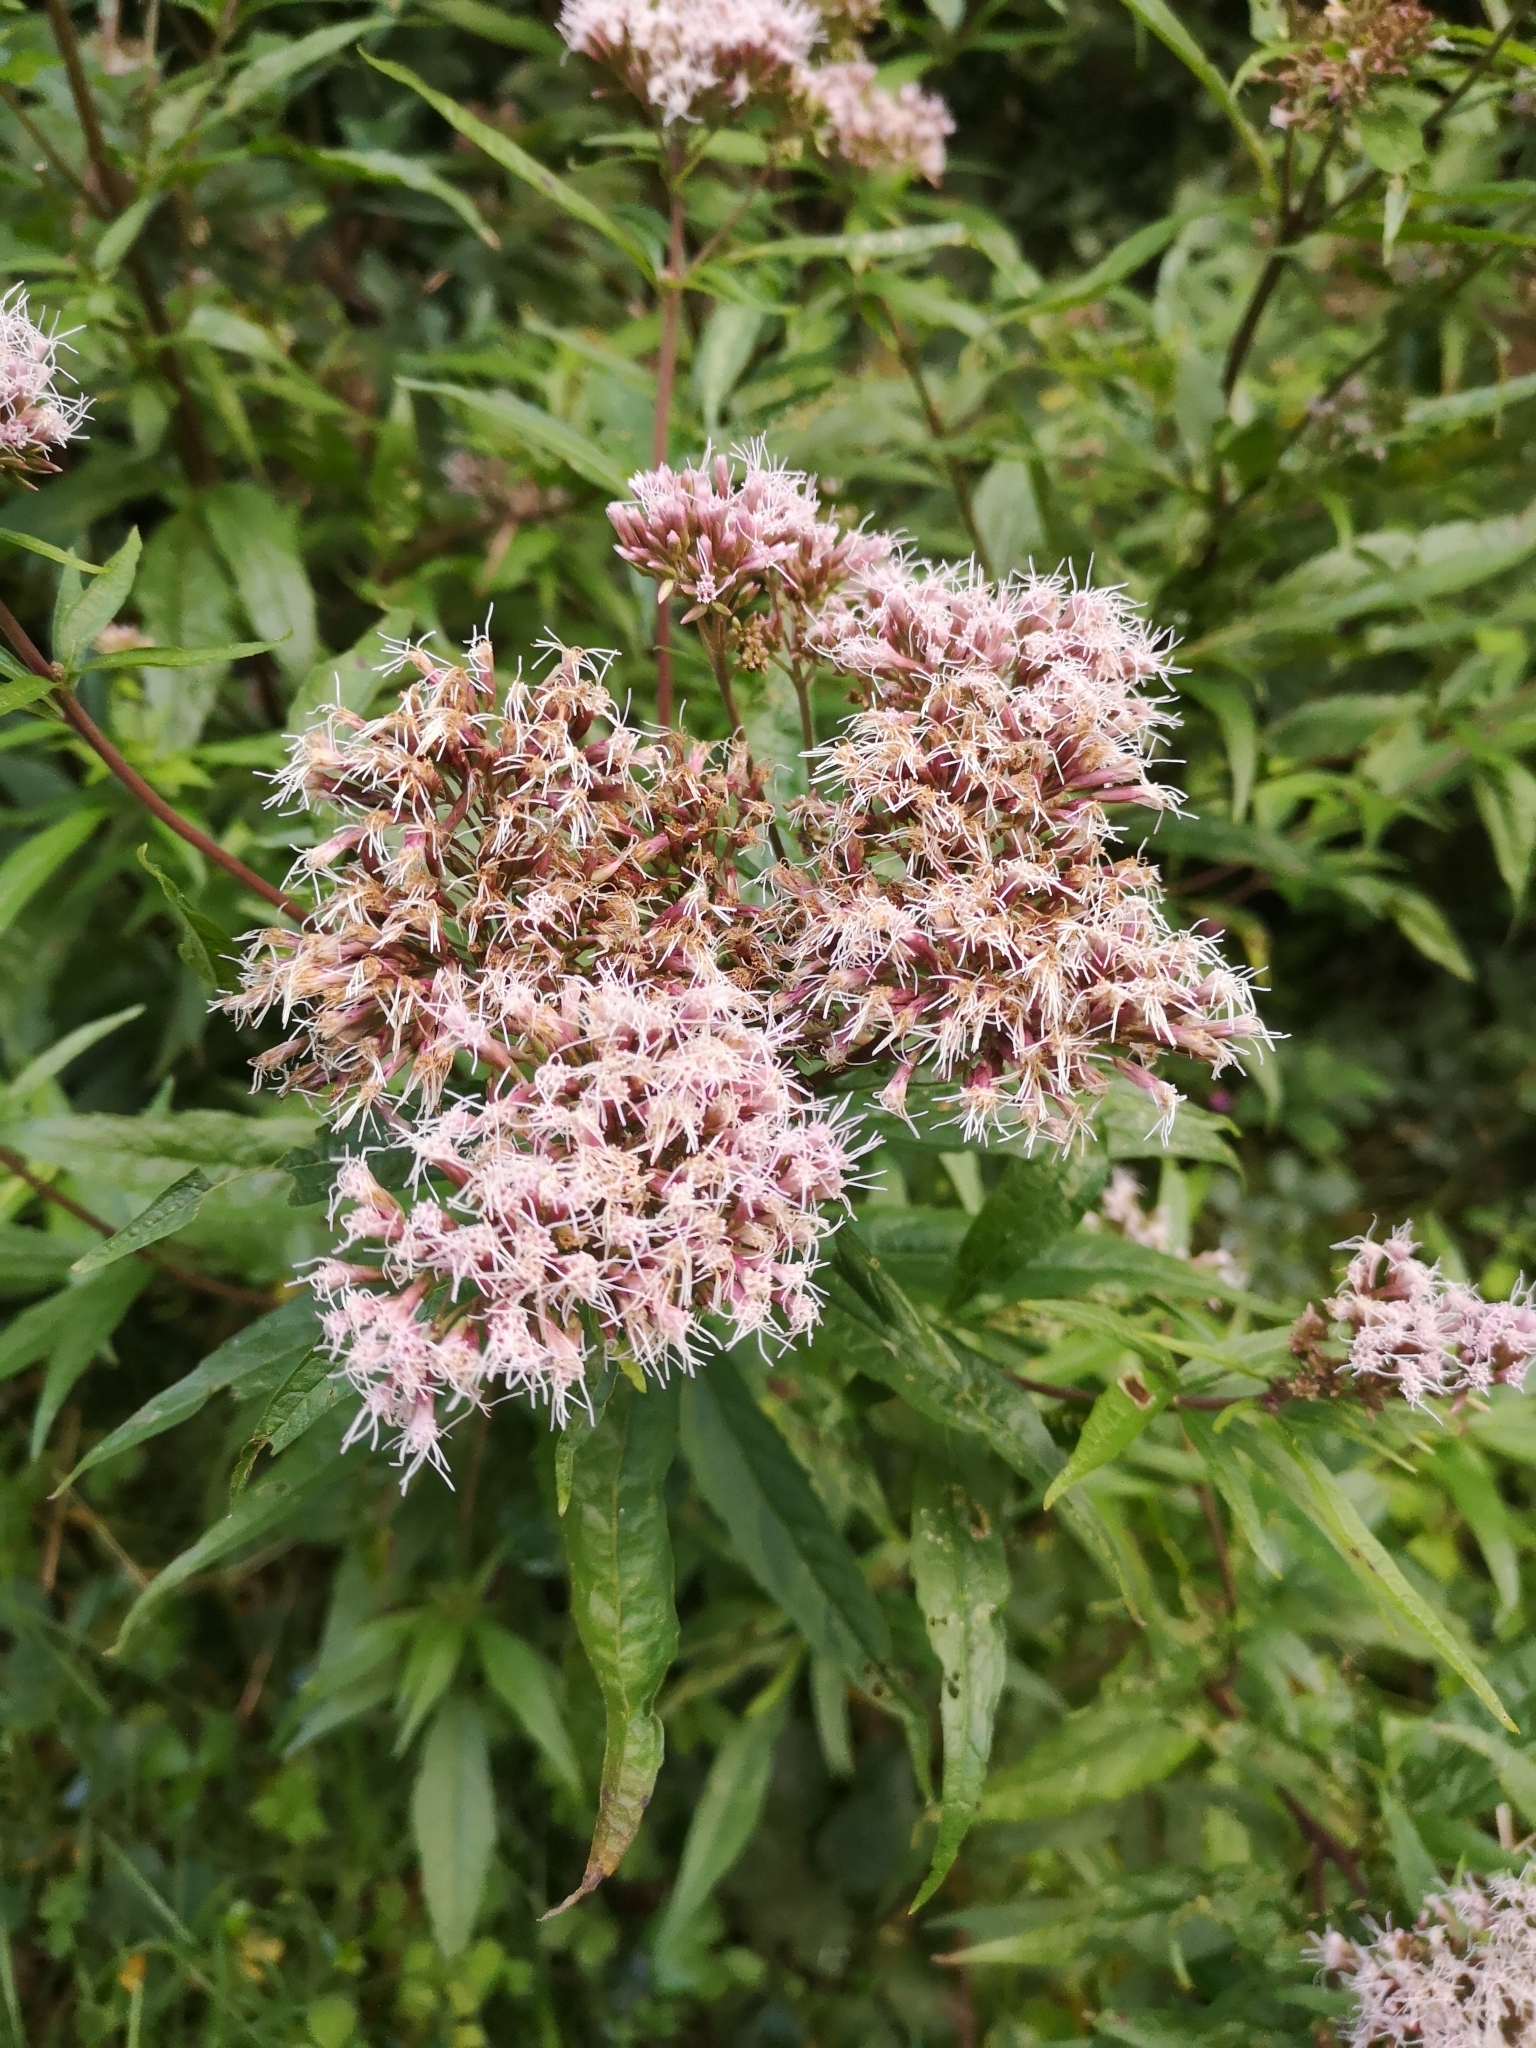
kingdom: Plantae
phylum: Tracheophyta
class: Magnoliopsida
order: Asterales
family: Asteraceae
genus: Eupatorium
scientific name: Eupatorium cannabinum
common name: Hemp-agrimony
